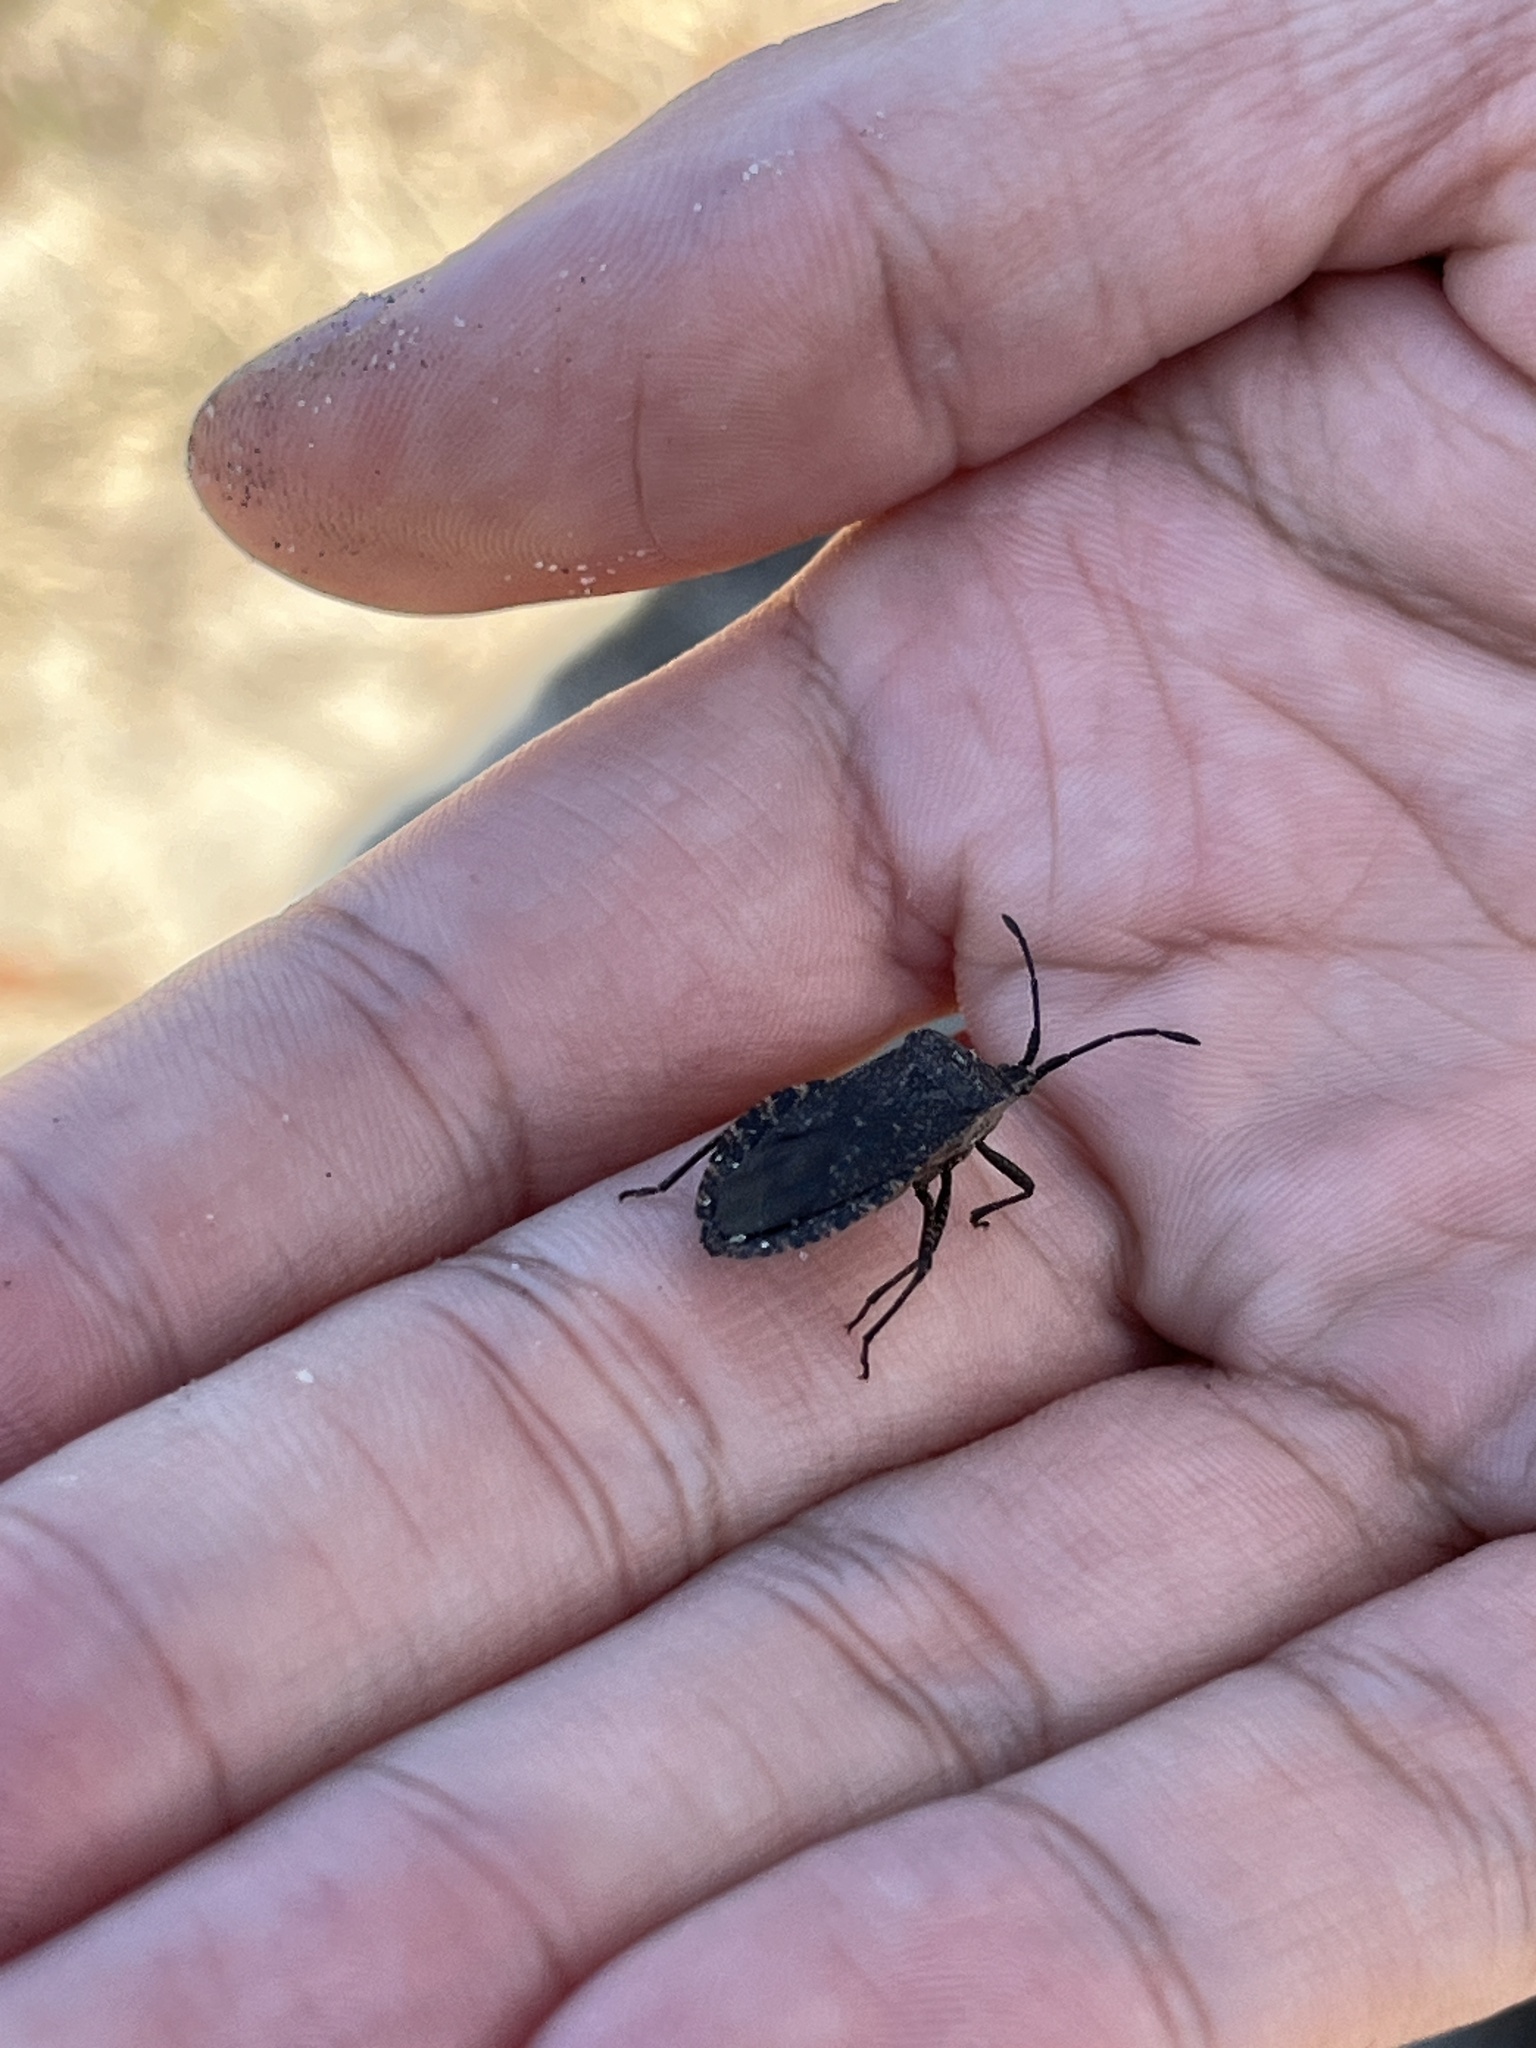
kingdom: Animalia
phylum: Arthropoda
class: Insecta
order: Hemiptera
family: Coreidae
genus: Anasa
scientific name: Anasa tristis
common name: Squash bug
